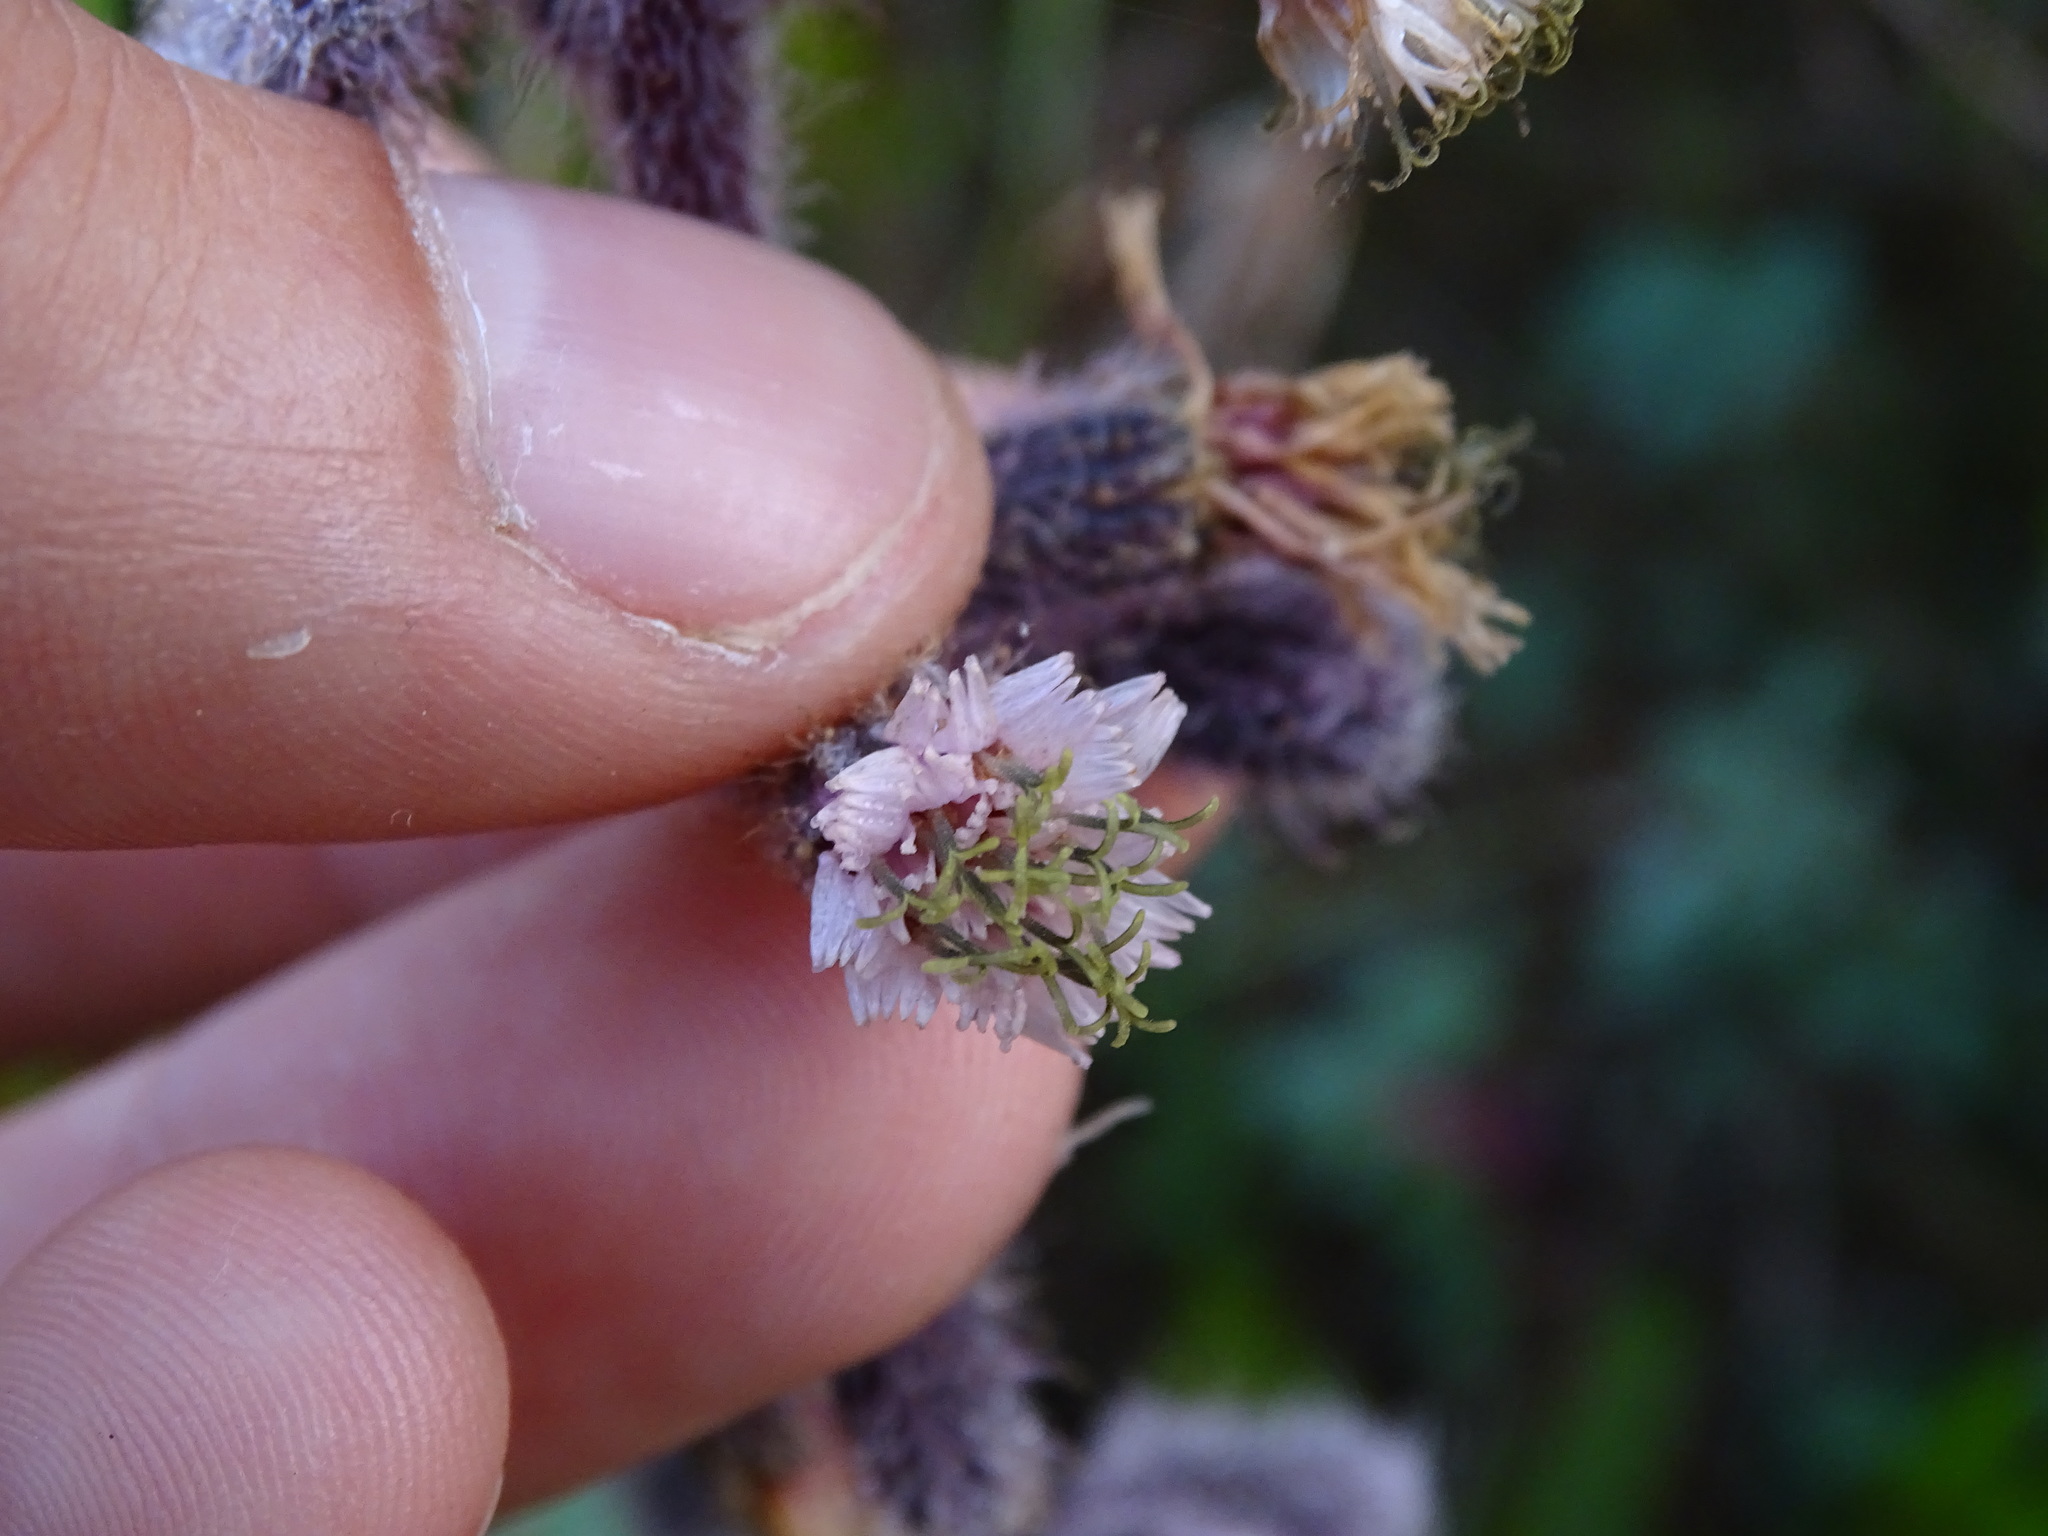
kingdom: Plantae
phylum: Tracheophyta
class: Magnoliopsida
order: Asterales
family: Asteraceae
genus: Nabalus
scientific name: Nabalus racemosus
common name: Glaucous white lettuce
